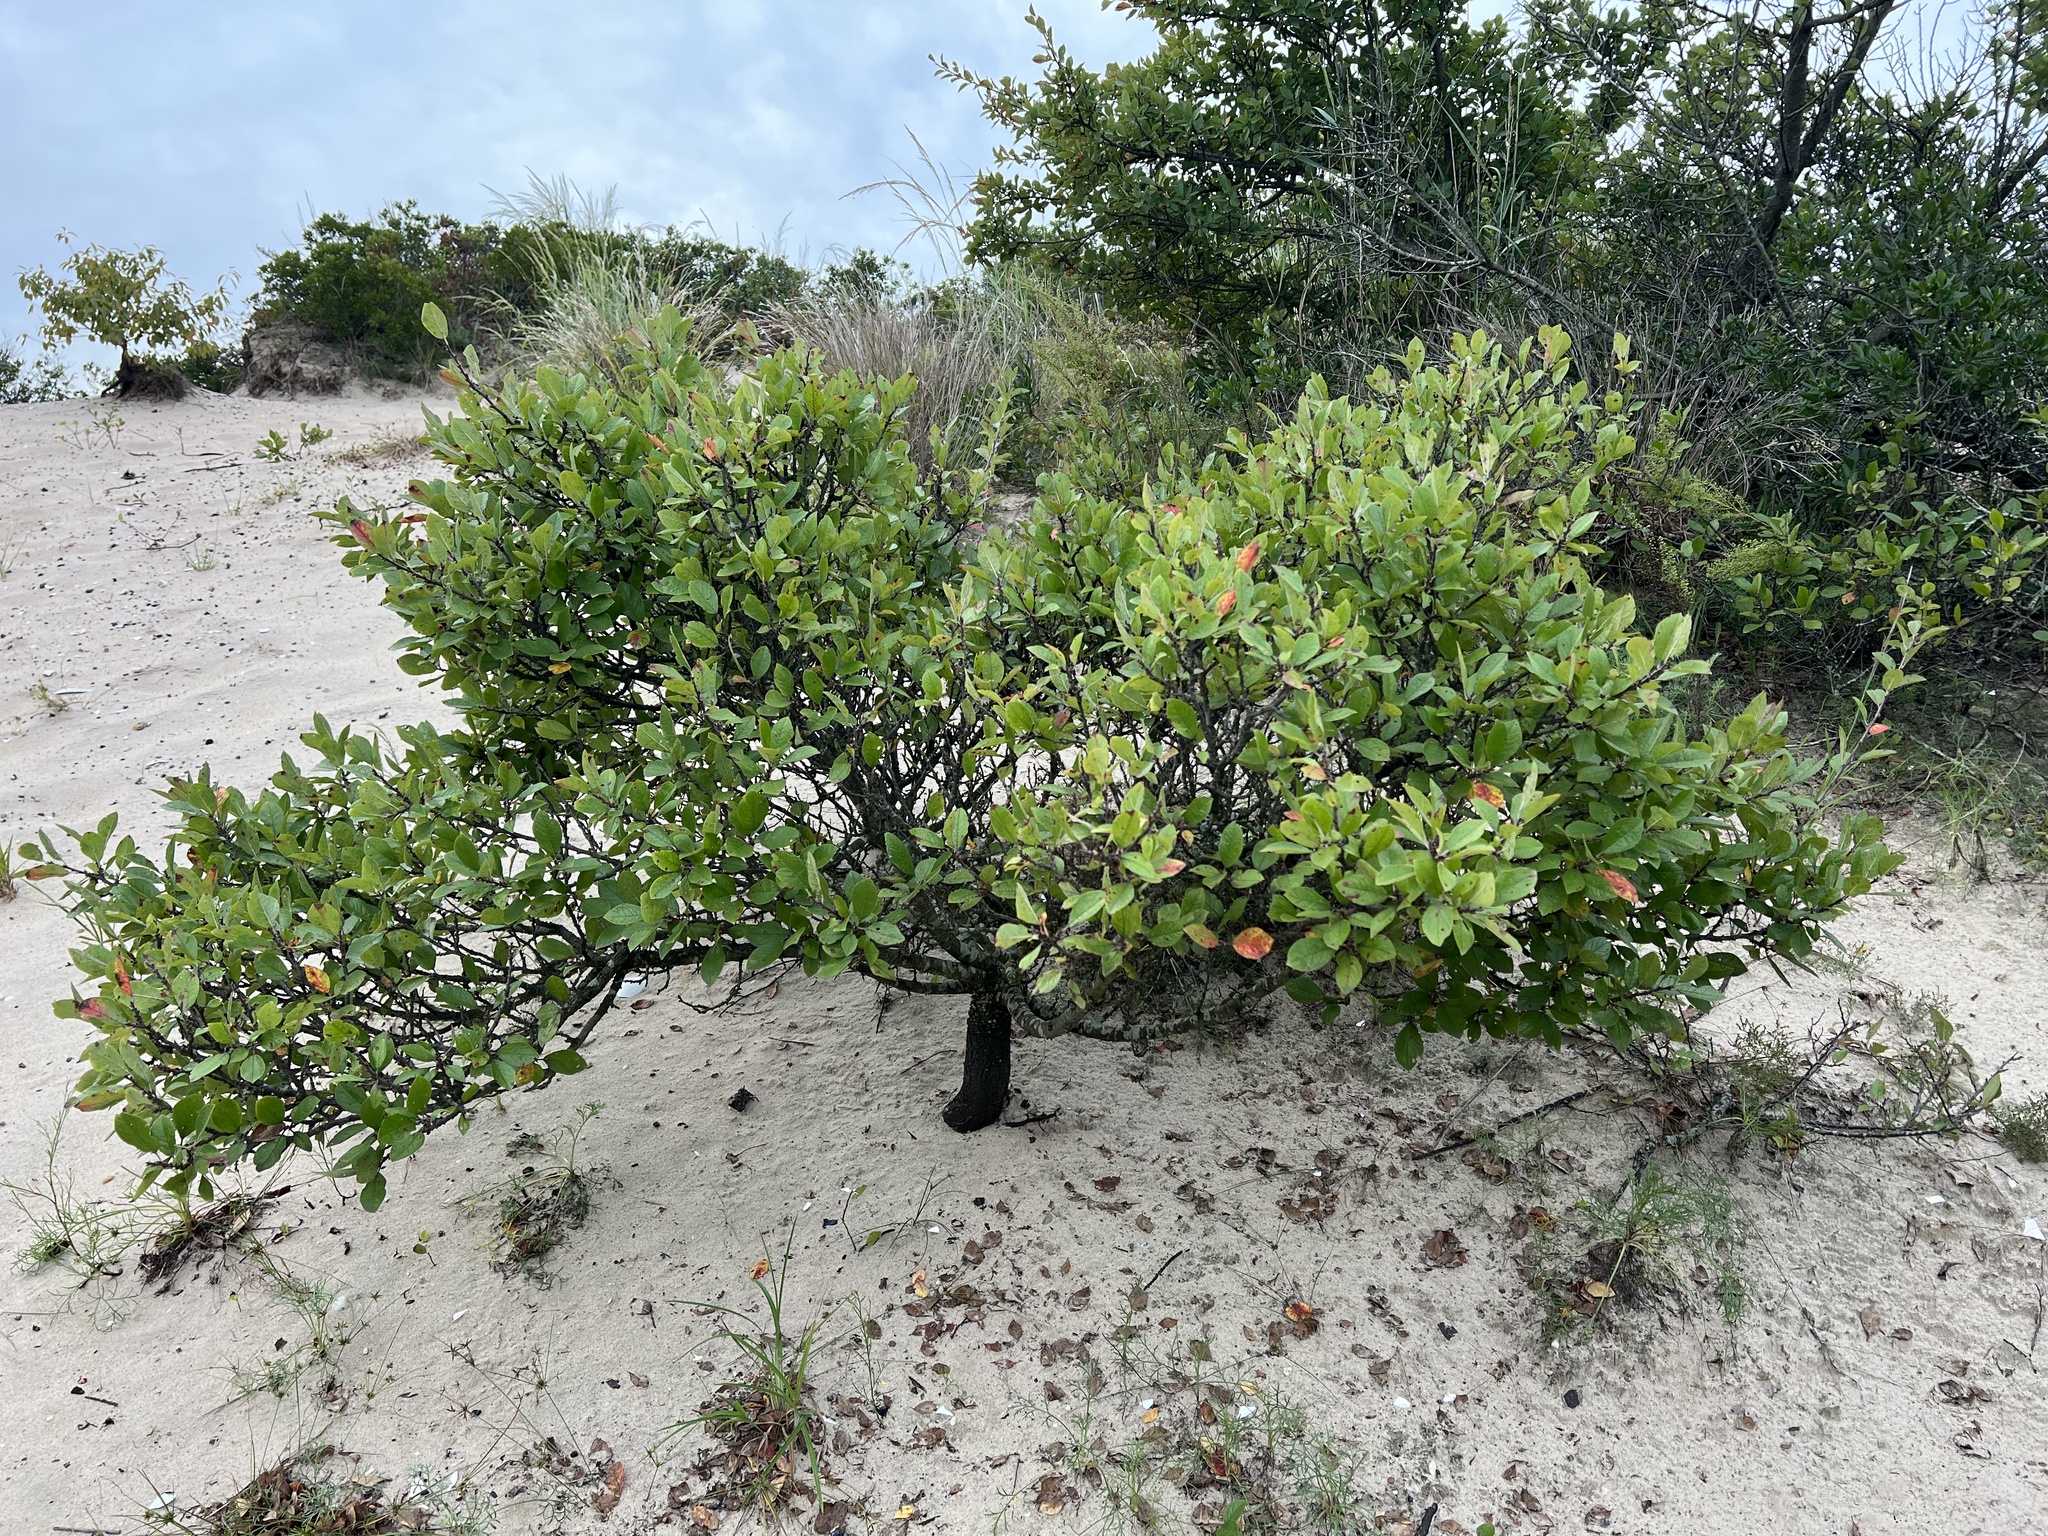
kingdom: Plantae
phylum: Tracheophyta
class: Magnoliopsida
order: Rosales
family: Rosaceae
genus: Prunus
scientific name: Prunus maritima
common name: Beach plum
